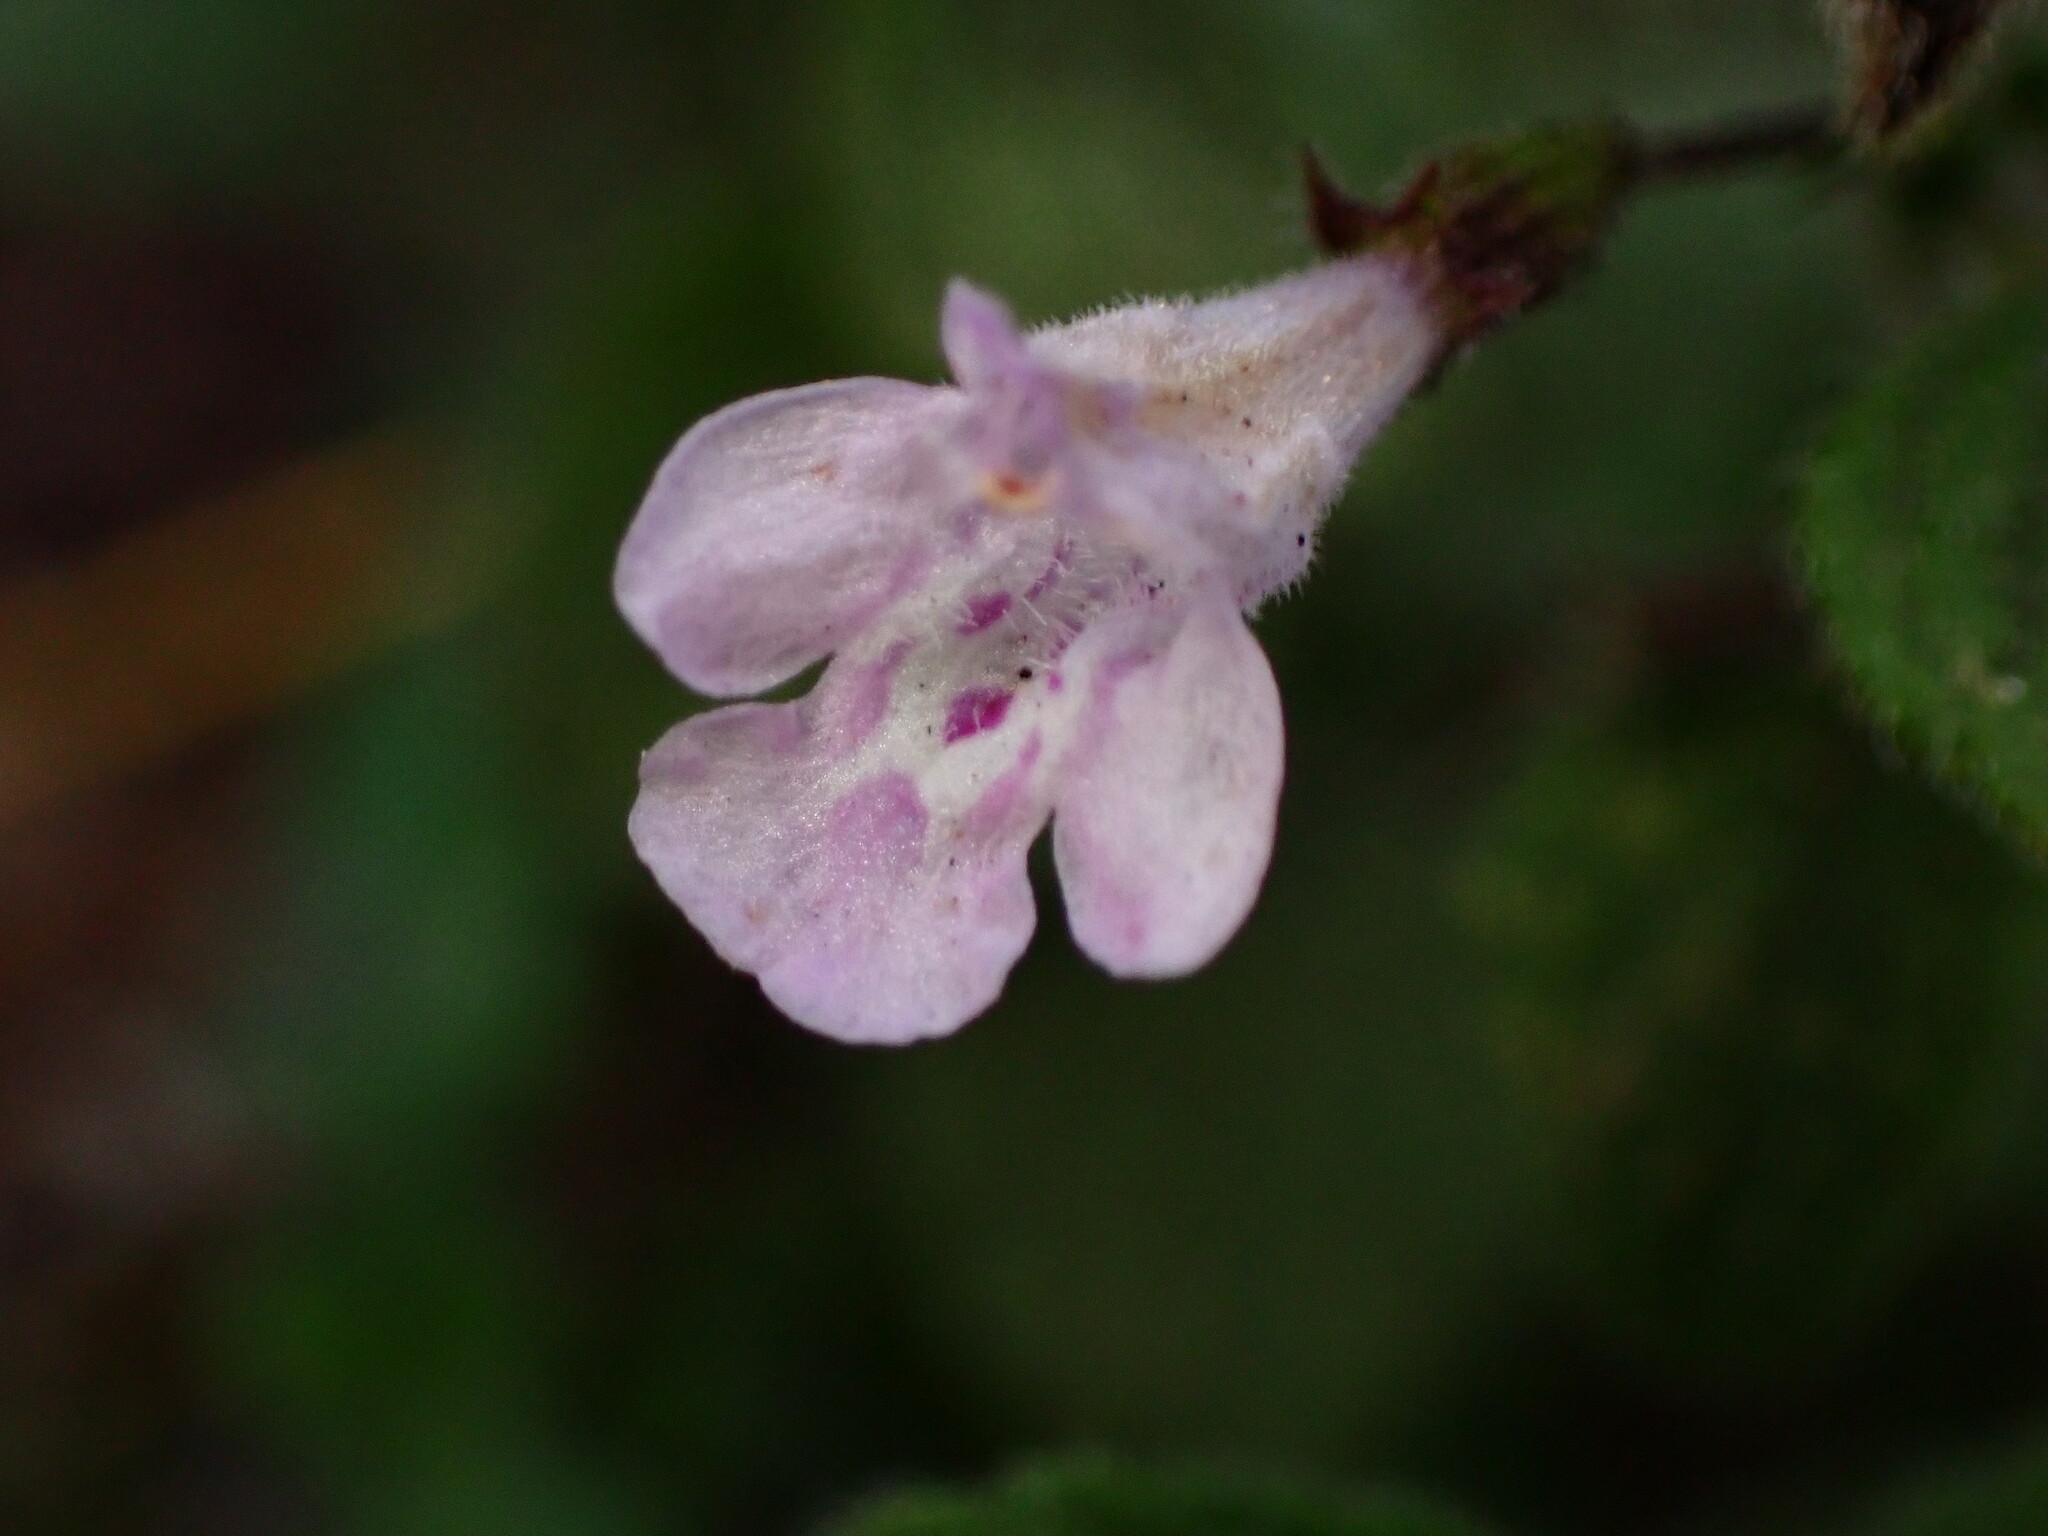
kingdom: Plantae
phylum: Tracheophyta
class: Magnoliopsida
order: Lamiales
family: Lamiaceae
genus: Clinopodium
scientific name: Clinopodium menthifolium
